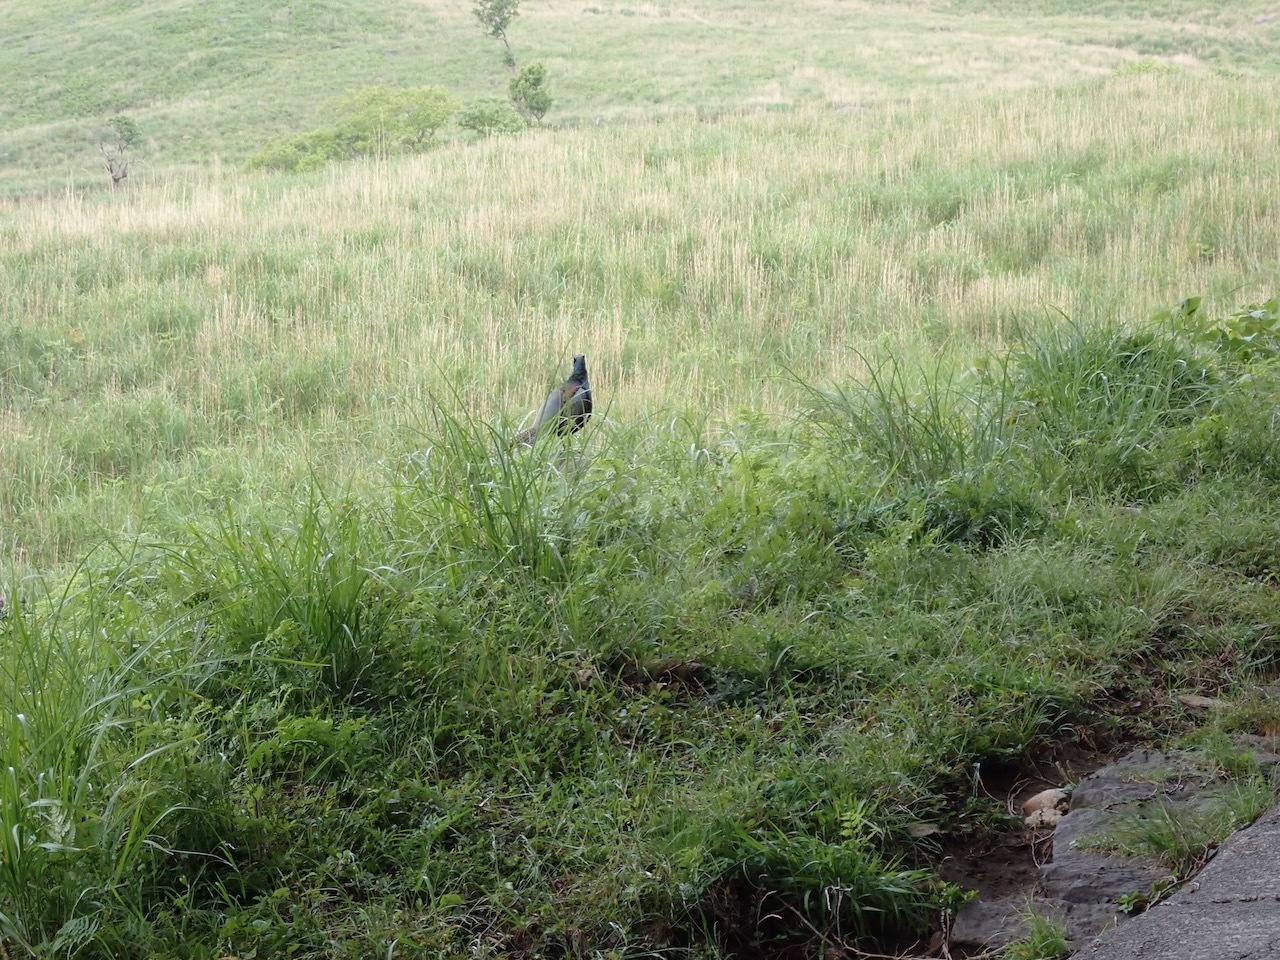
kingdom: Animalia
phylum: Chordata
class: Aves
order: Galliformes
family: Phasianidae
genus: Phasianus
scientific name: Phasianus versicolor
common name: Green pheasant
